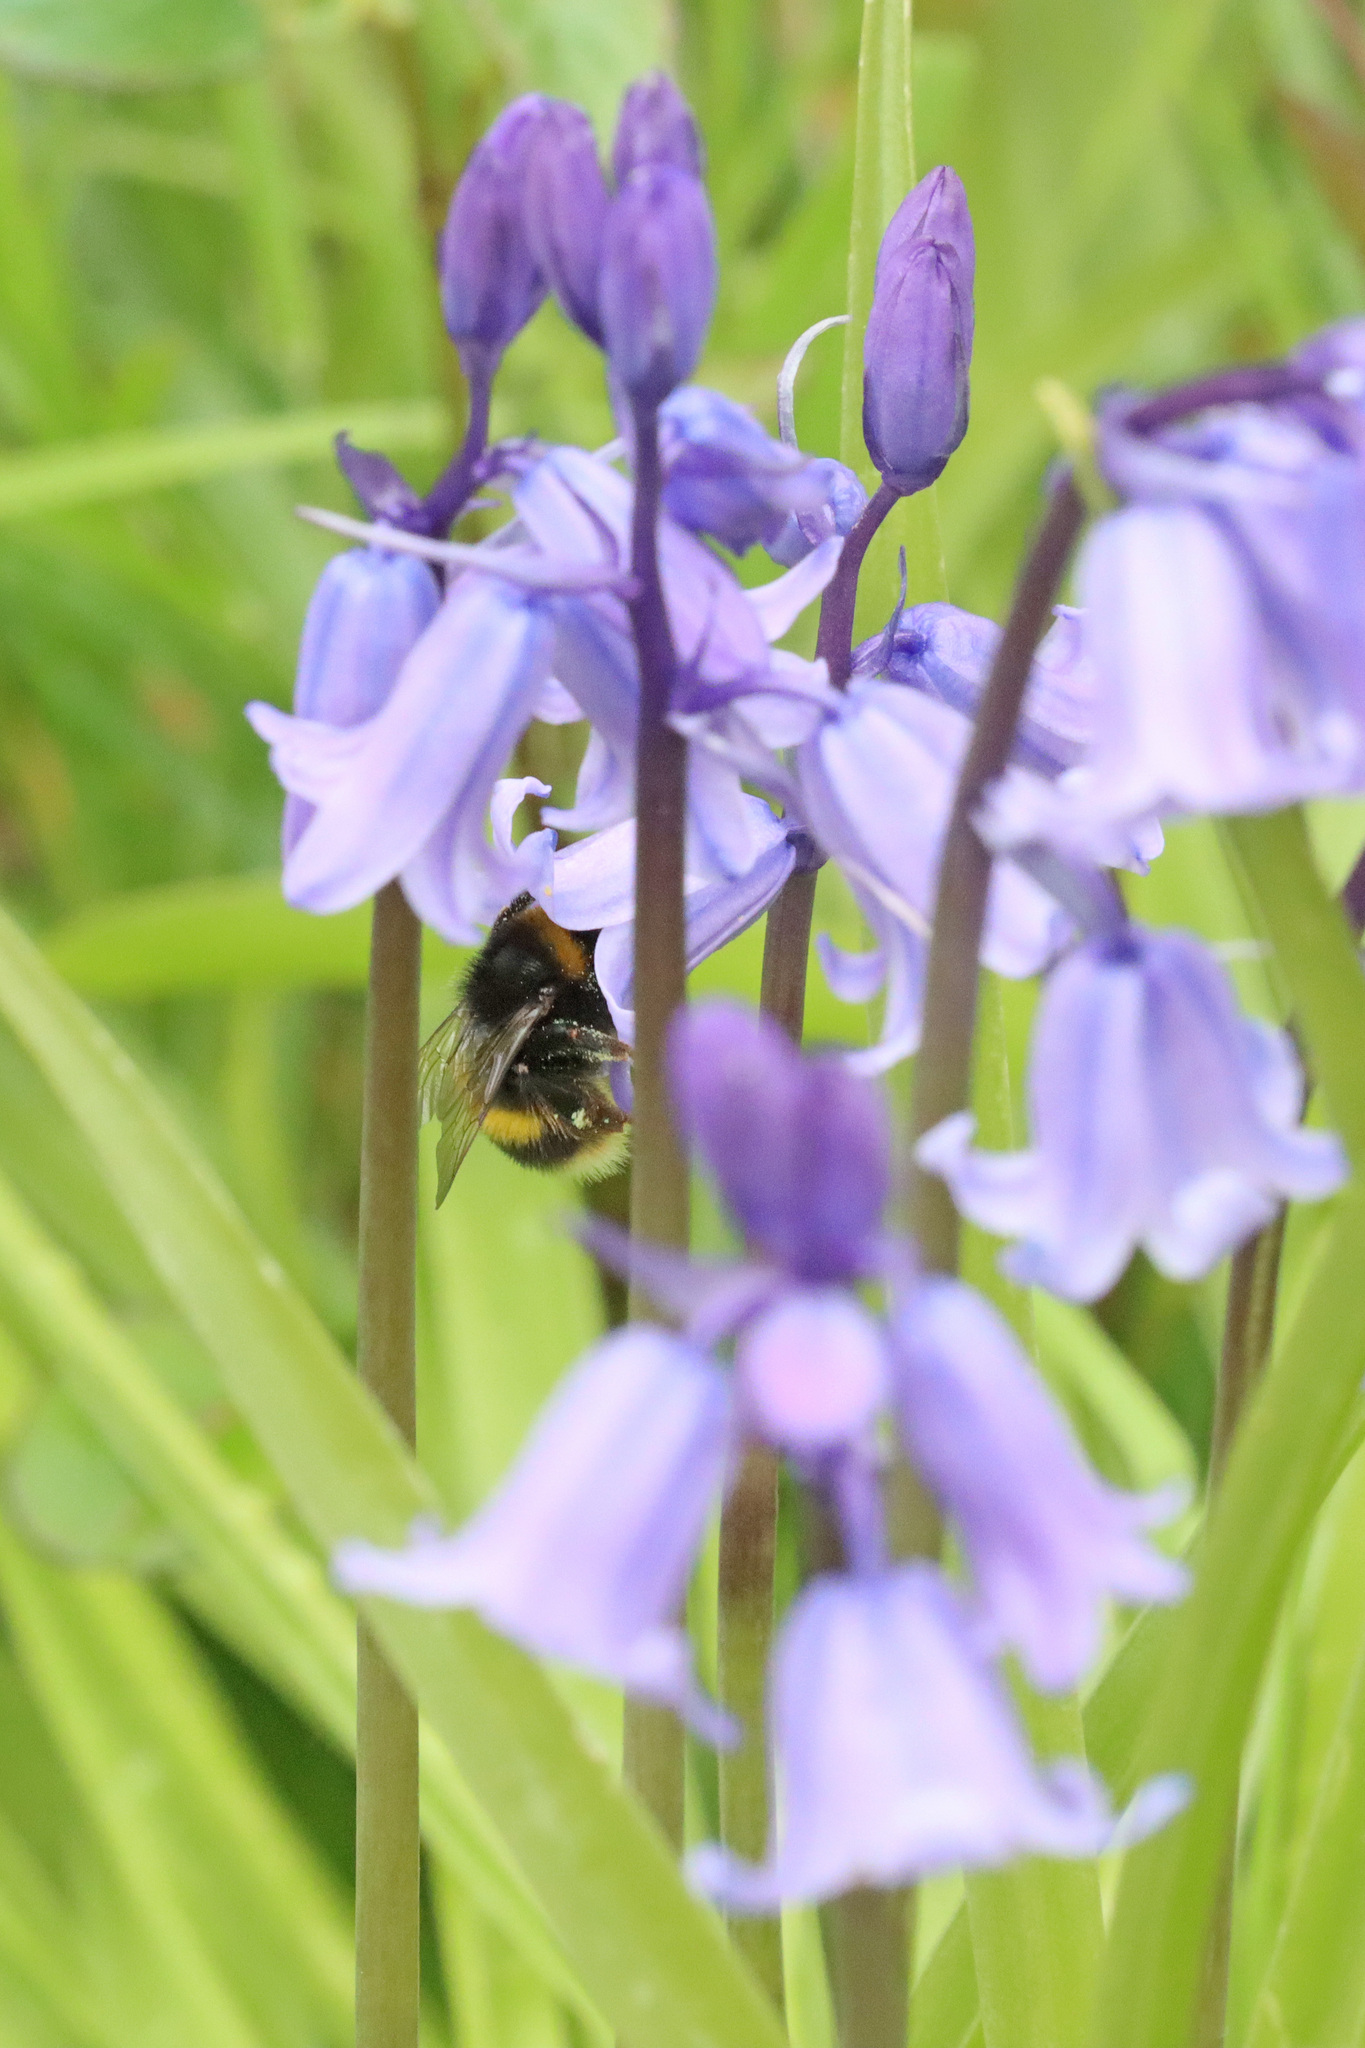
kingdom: Animalia
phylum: Arthropoda
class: Insecta
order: Hymenoptera
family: Apidae
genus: Bombus
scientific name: Bombus terrestris
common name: Buff-tailed bumblebee
